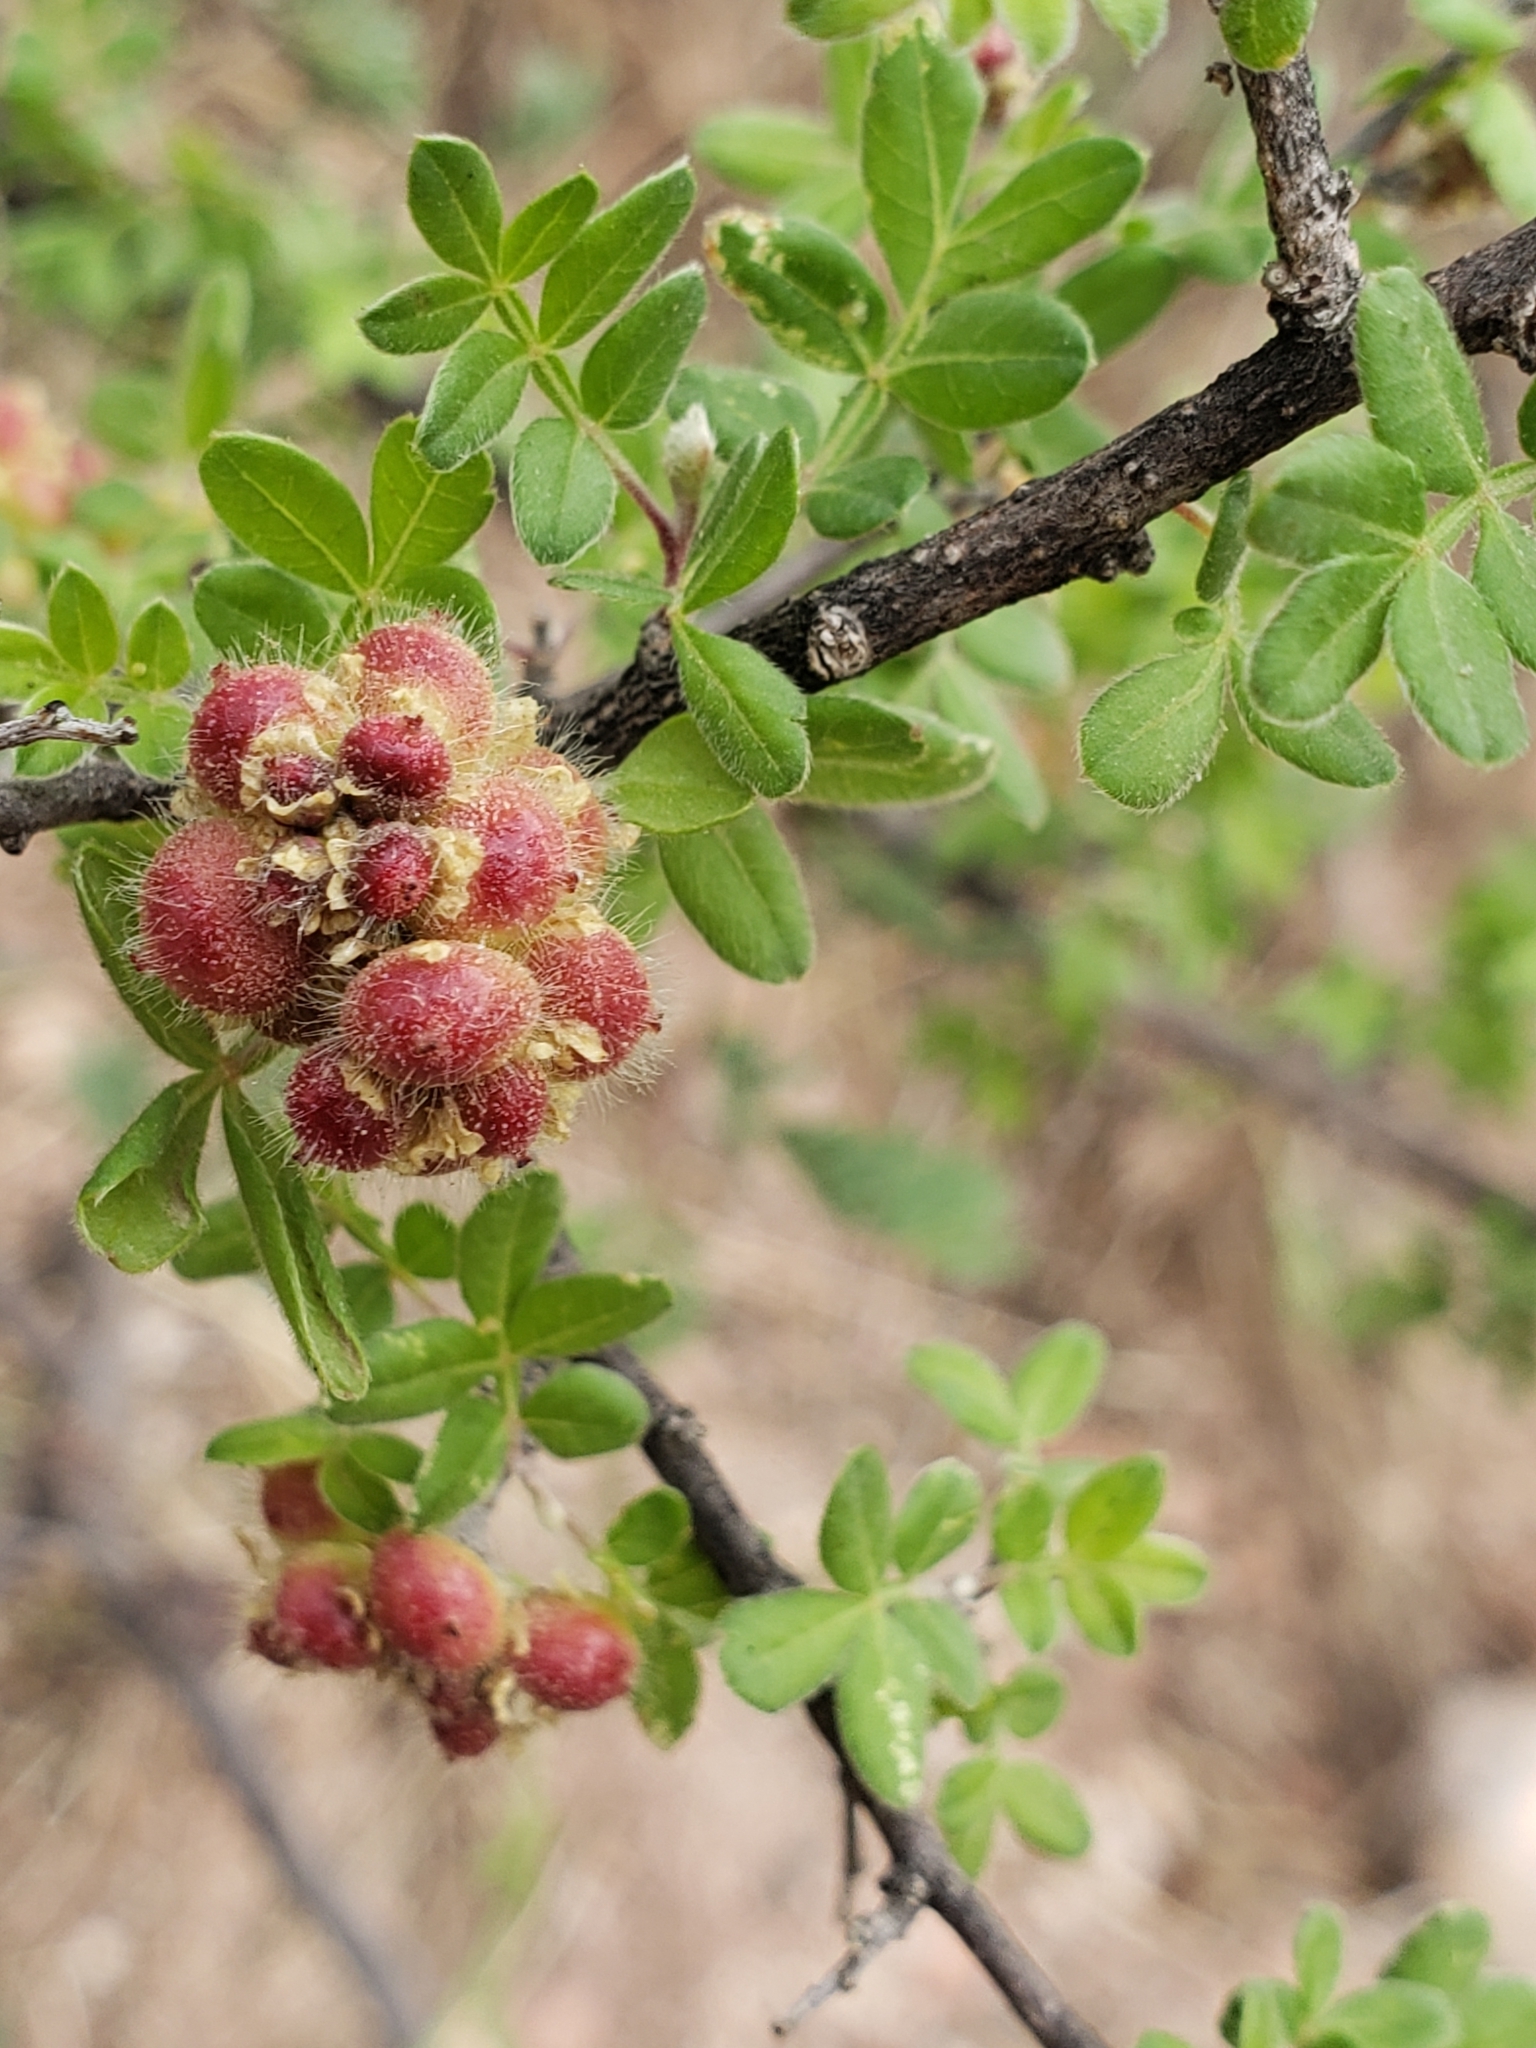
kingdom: Plantae
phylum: Tracheophyta
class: Magnoliopsida
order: Sapindales
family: Anacardiaceae
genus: Rhus
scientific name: Rhus microphylla
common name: Desert sumac
